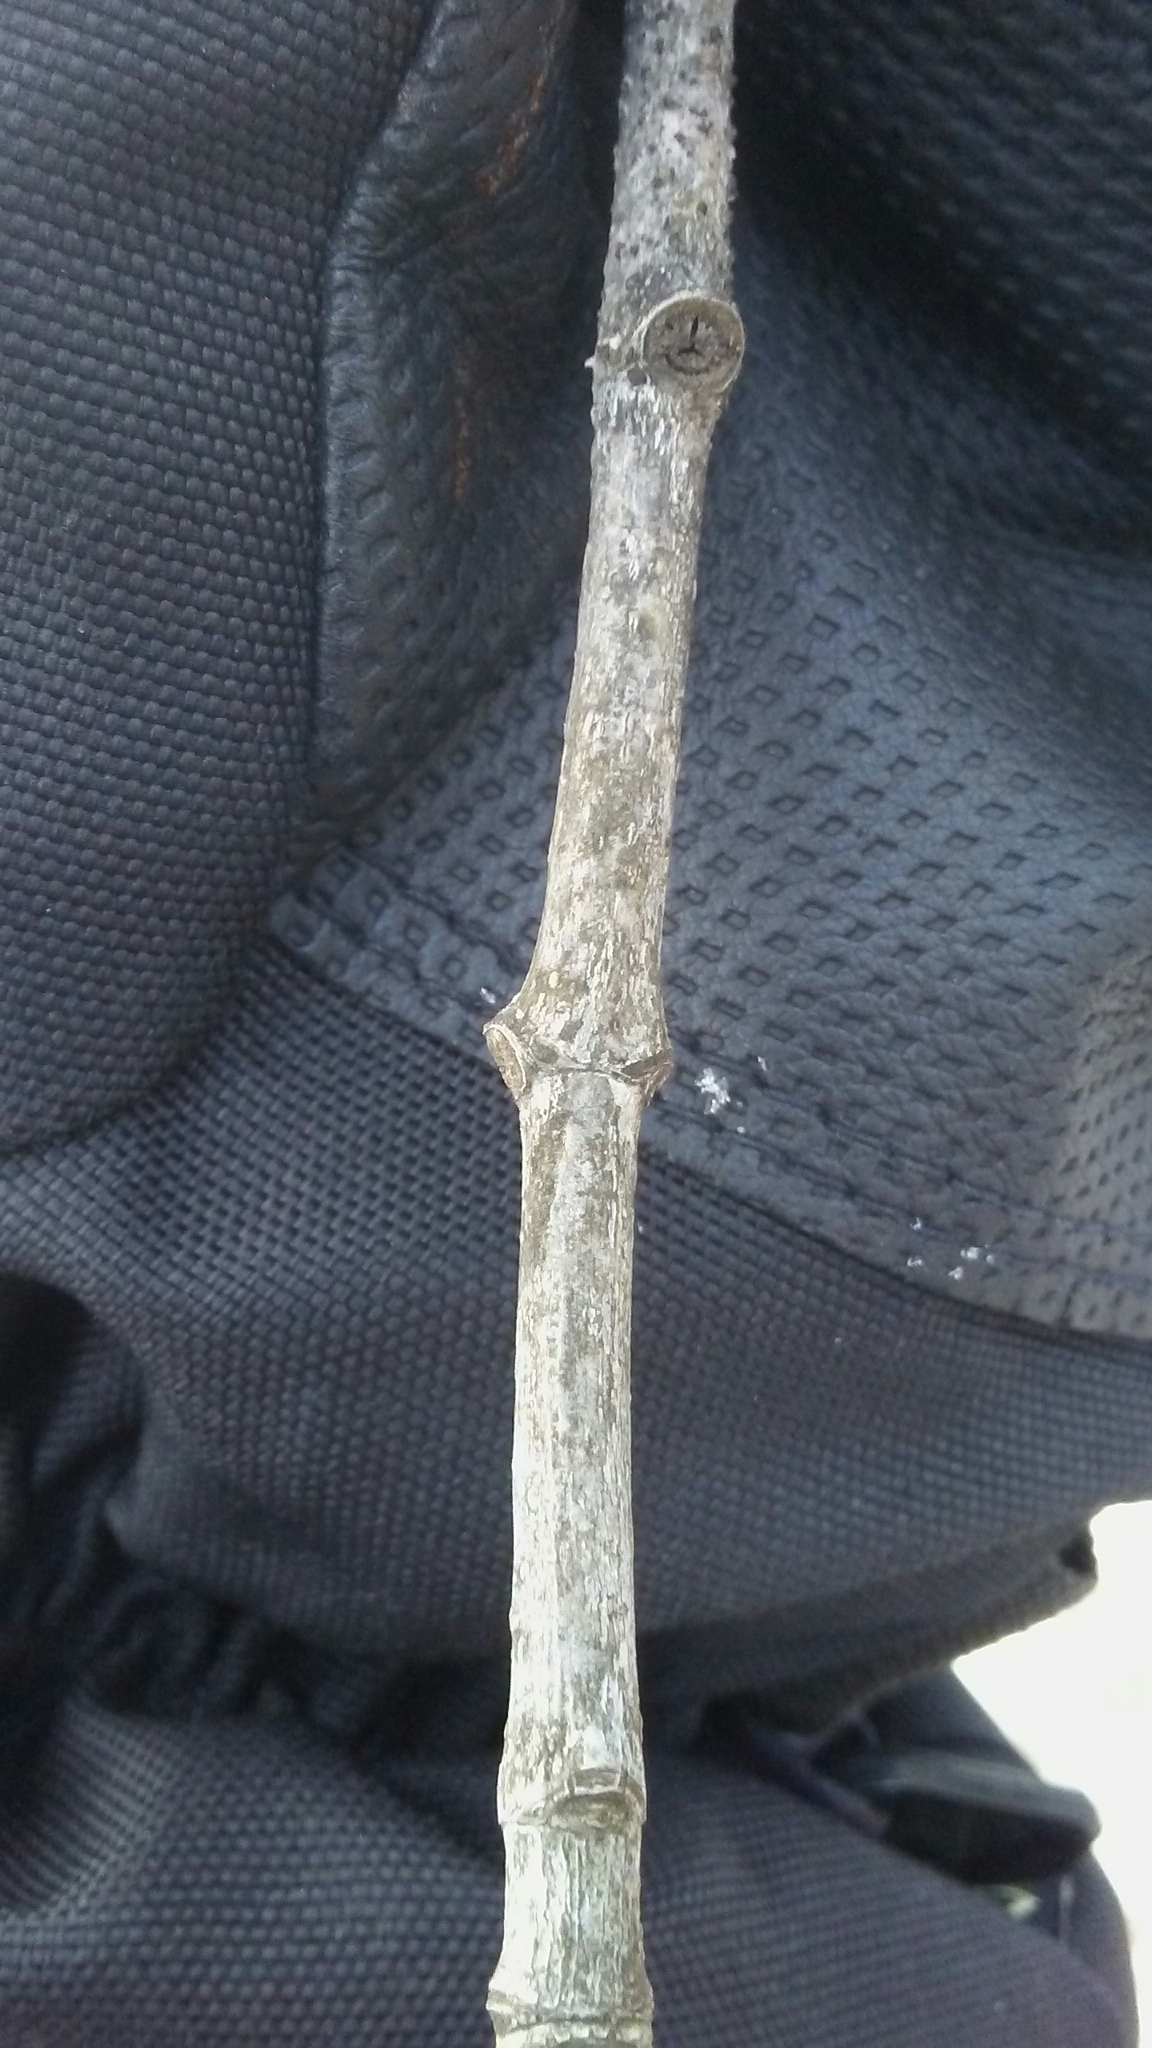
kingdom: Plantae
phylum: Tracheophyta
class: Magnoliopsida
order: Sapindales
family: Sapindaceae
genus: Acer
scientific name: Acer saccharinum
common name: Silver maple
